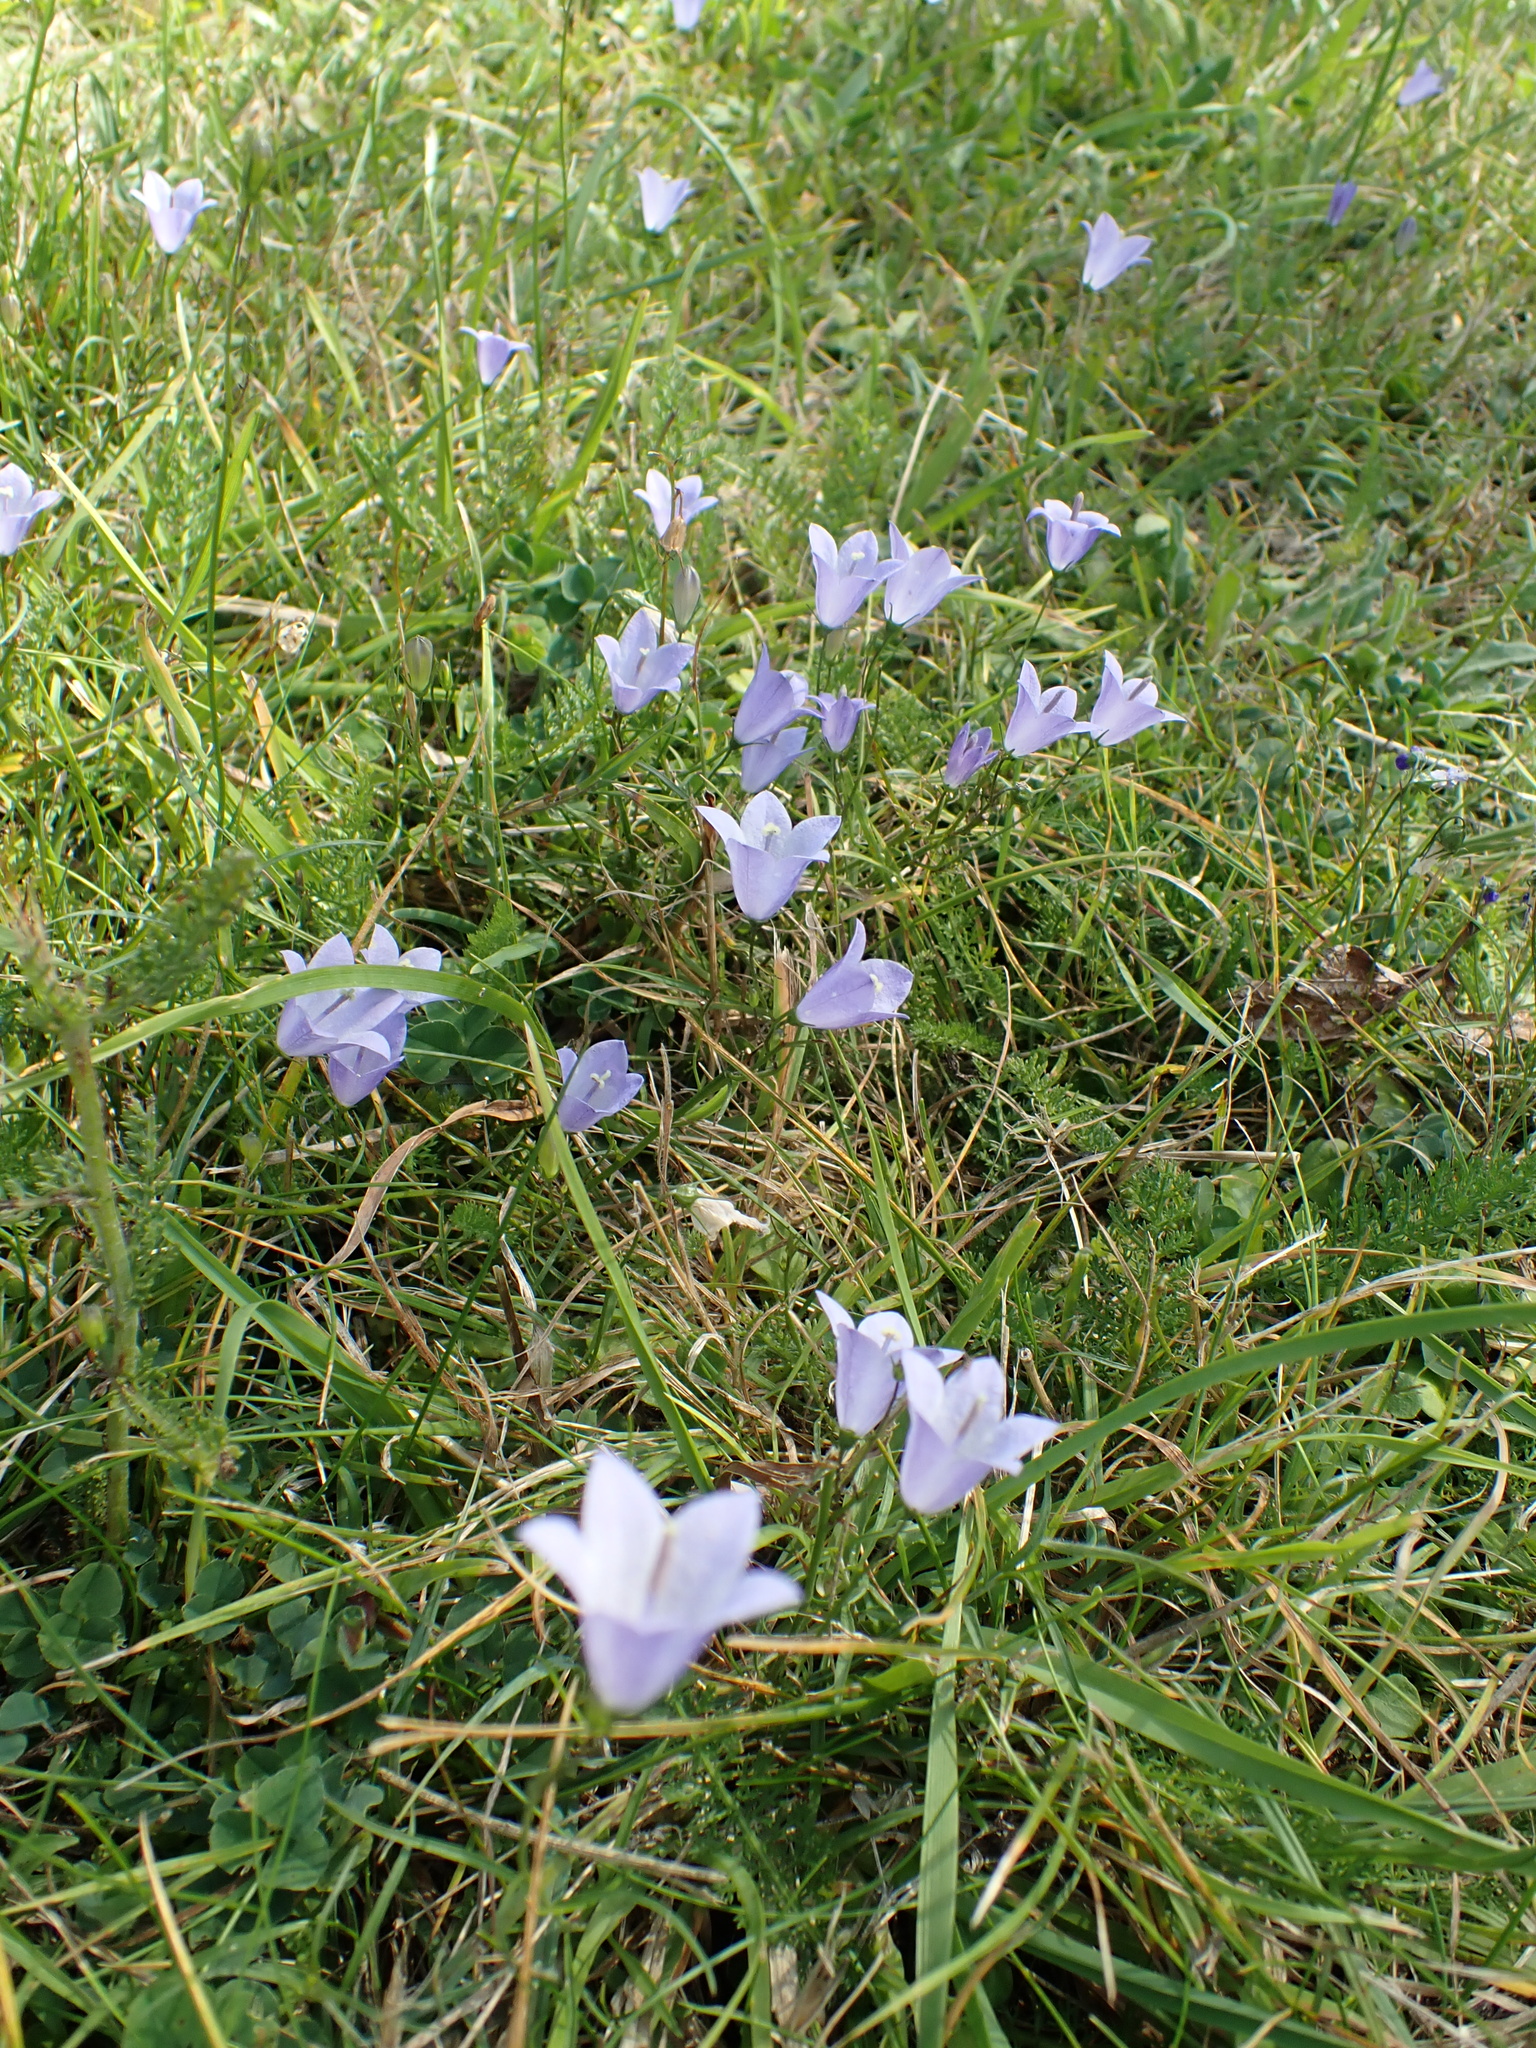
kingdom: Plantae
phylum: Tracheophyta
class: Magnoliopsida
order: Asterales
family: Campanulaceae
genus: Campanula
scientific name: Campanula rotundifolia
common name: Harebell
